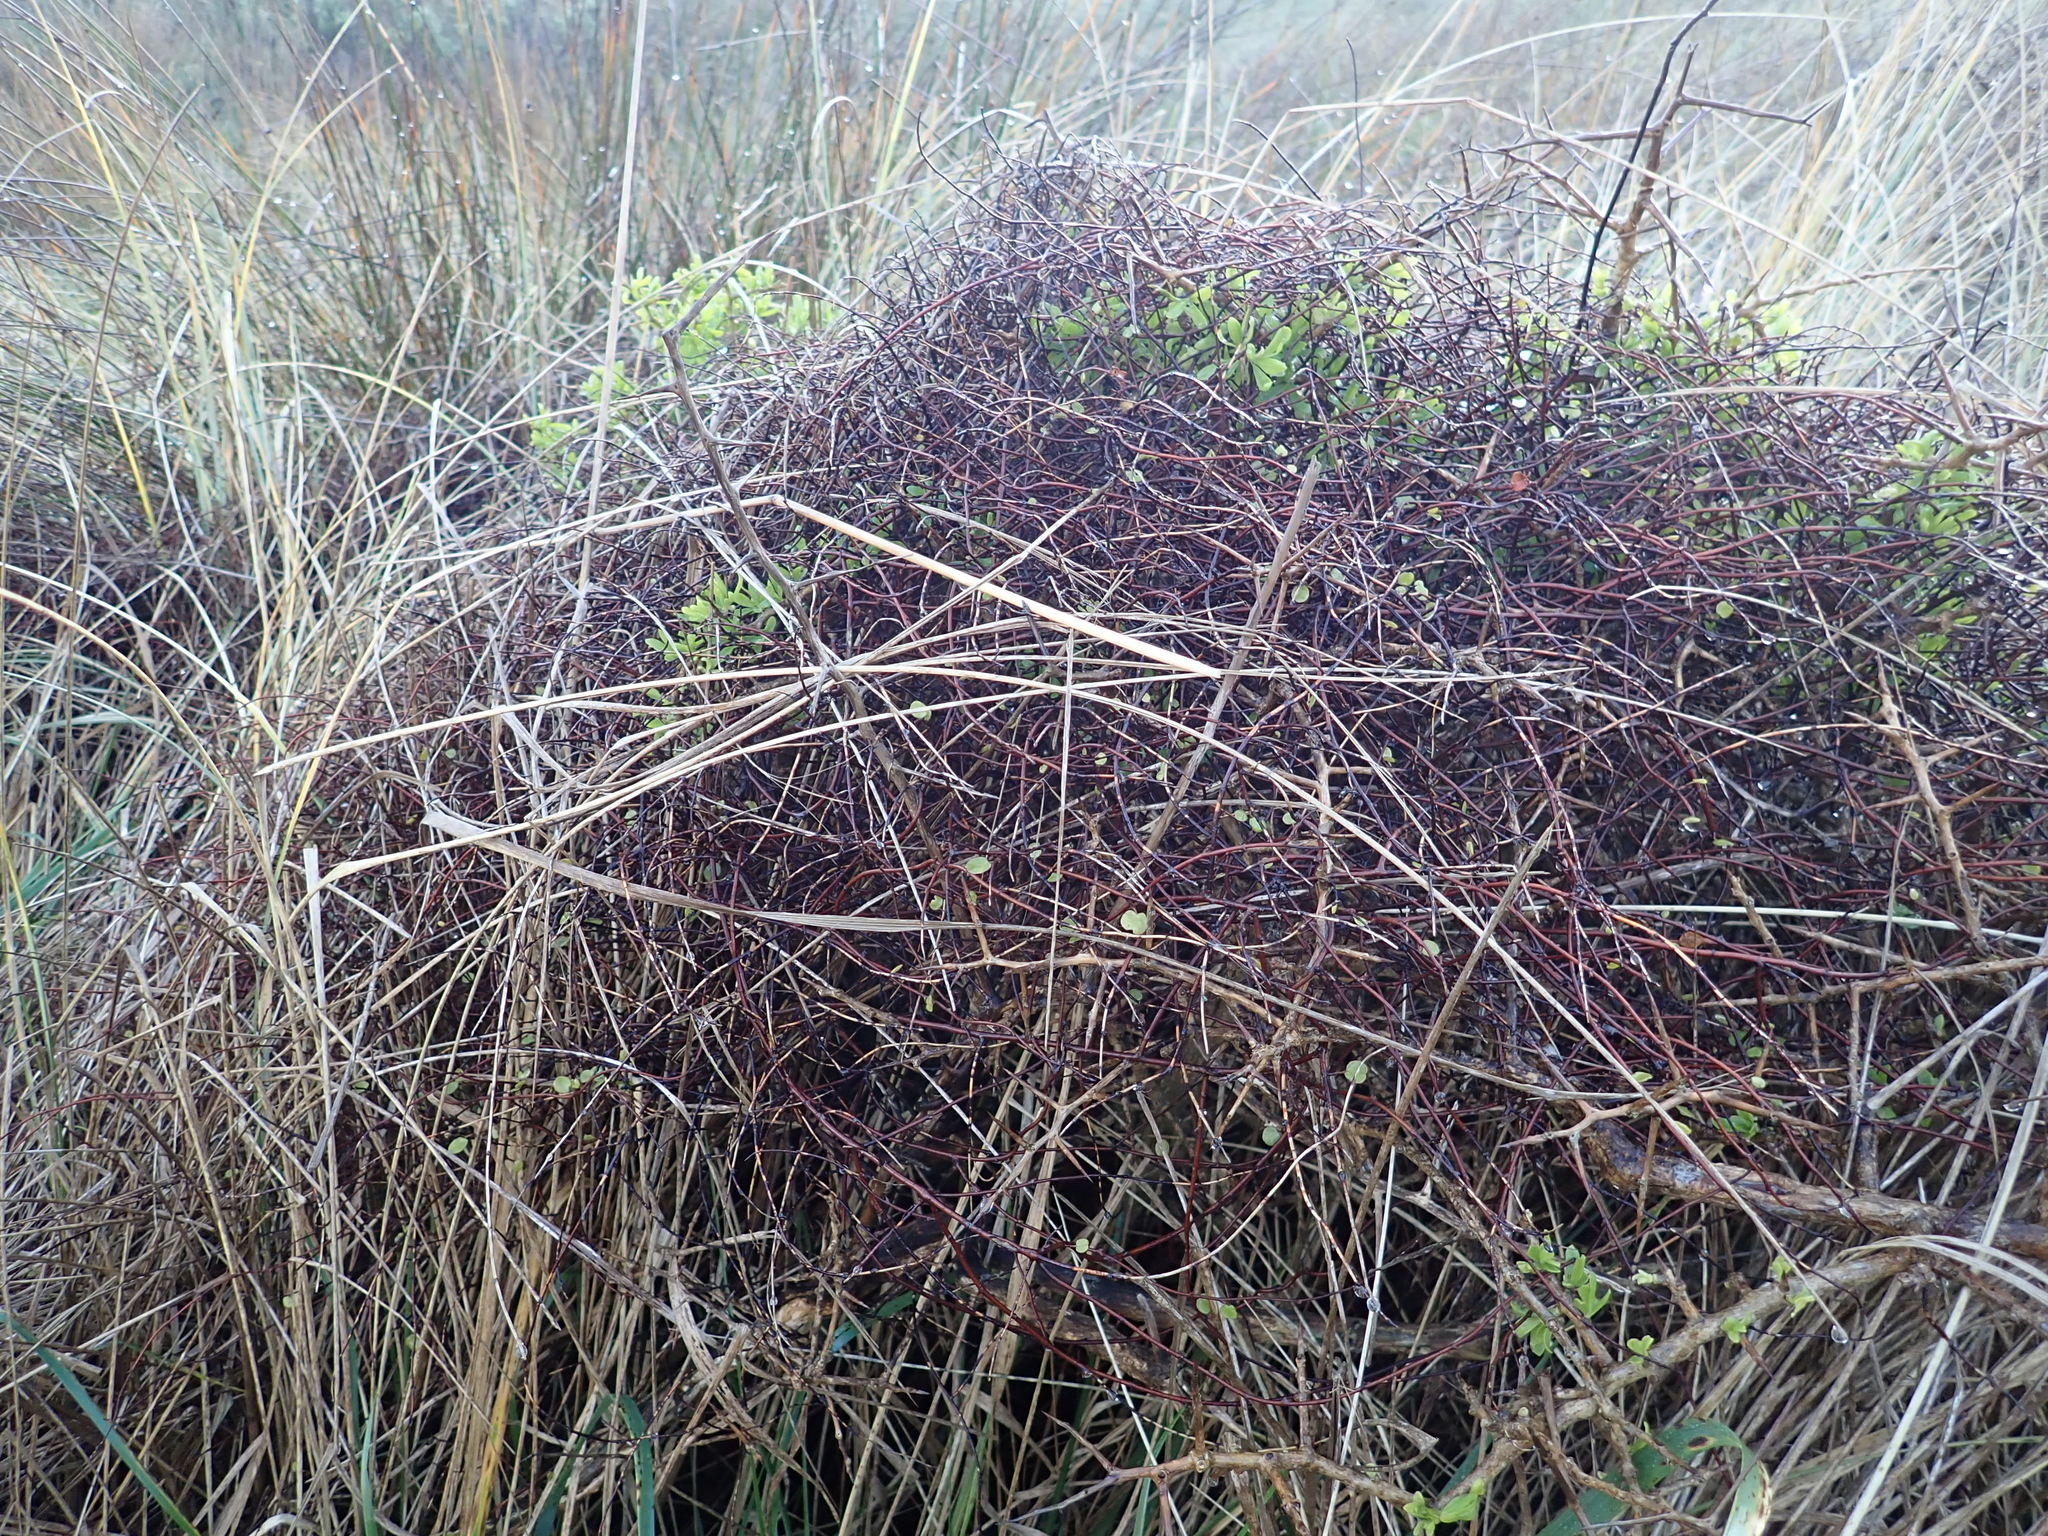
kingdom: Plantae
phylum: Tracheophyta
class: Magnoliopsida
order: Caryophyllales
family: Polygonaceae
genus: Muehlenbeckia
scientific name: Muehlenbeckia complexa
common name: Wireplant
